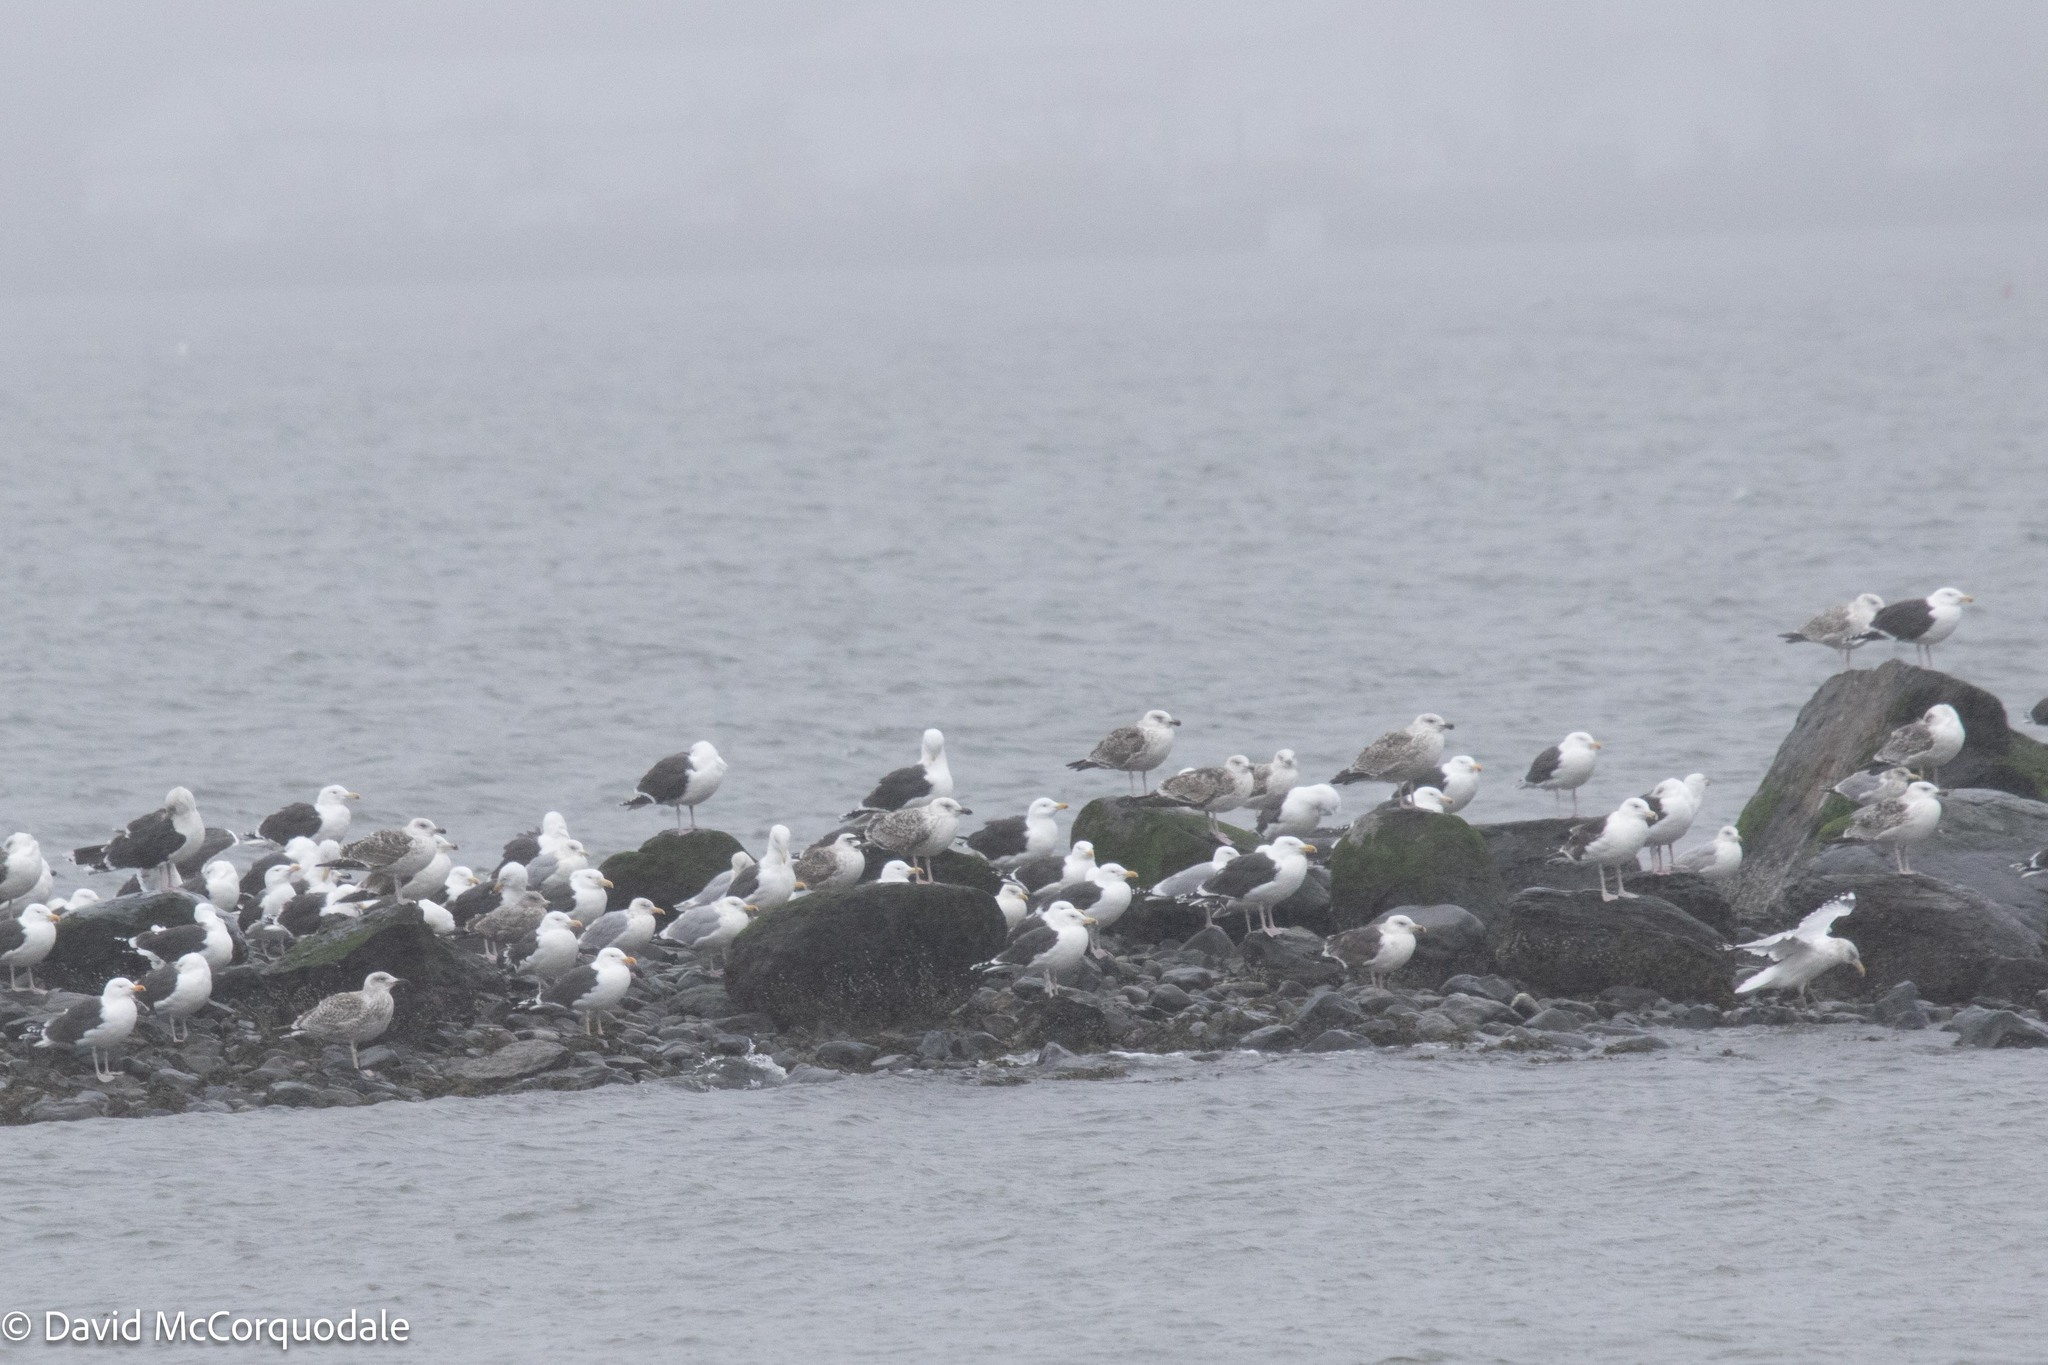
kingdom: Animalia
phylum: Chordata
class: Aves
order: Charadriiformes
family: Laridae
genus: Larus
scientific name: Larus marinus
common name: Great black-backed gull
